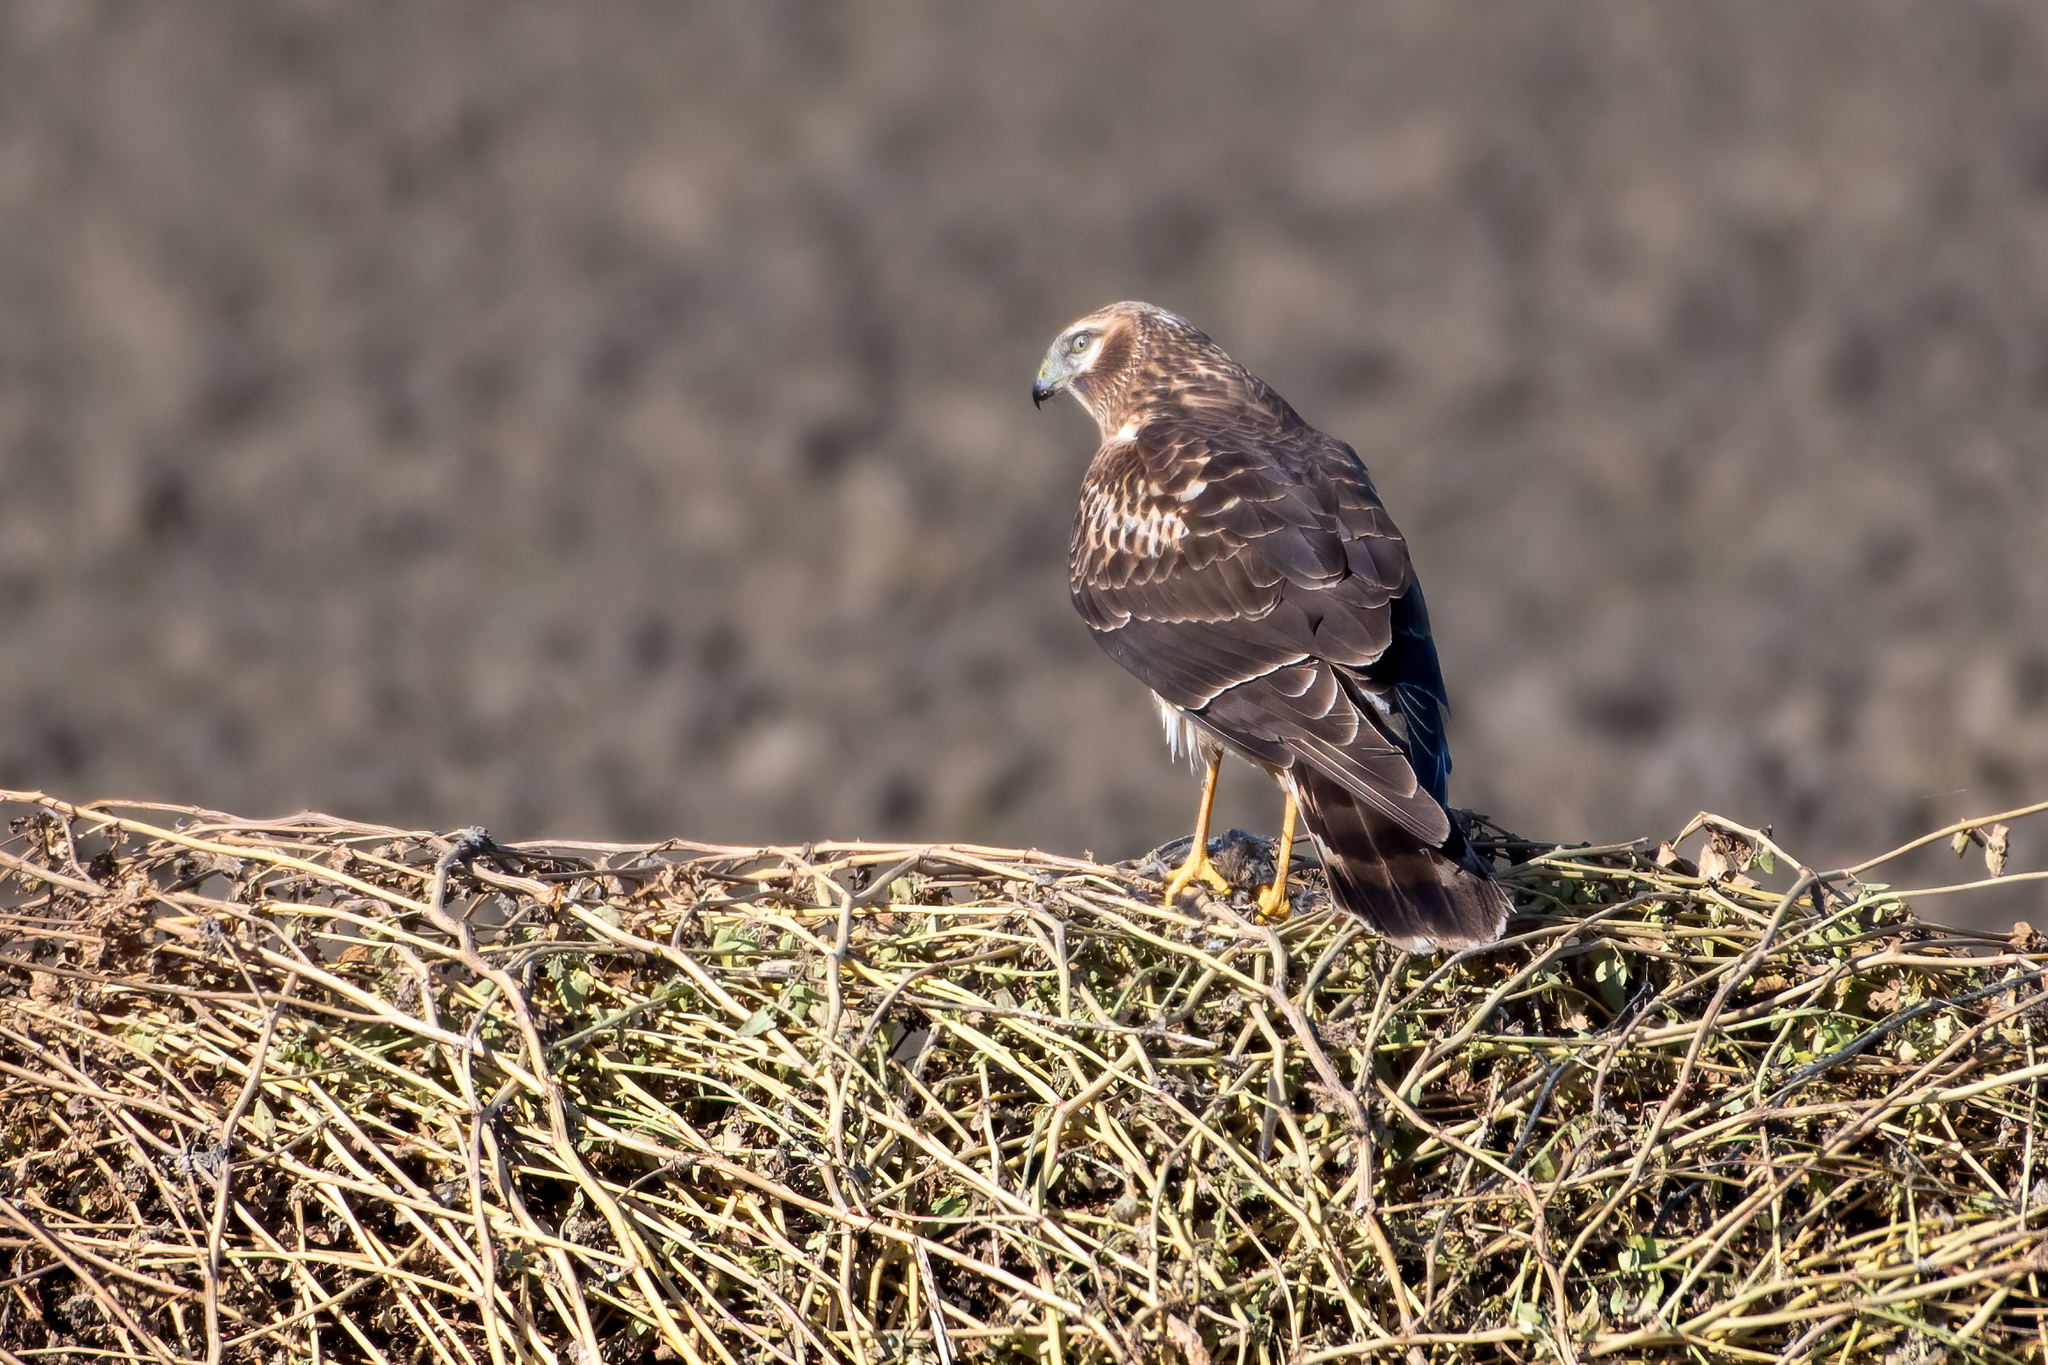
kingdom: Animalia
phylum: Chordata
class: Aves
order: Accipitriformes
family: Accipitridae
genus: Circus
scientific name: Circus cyaneus
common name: Hen harrier
